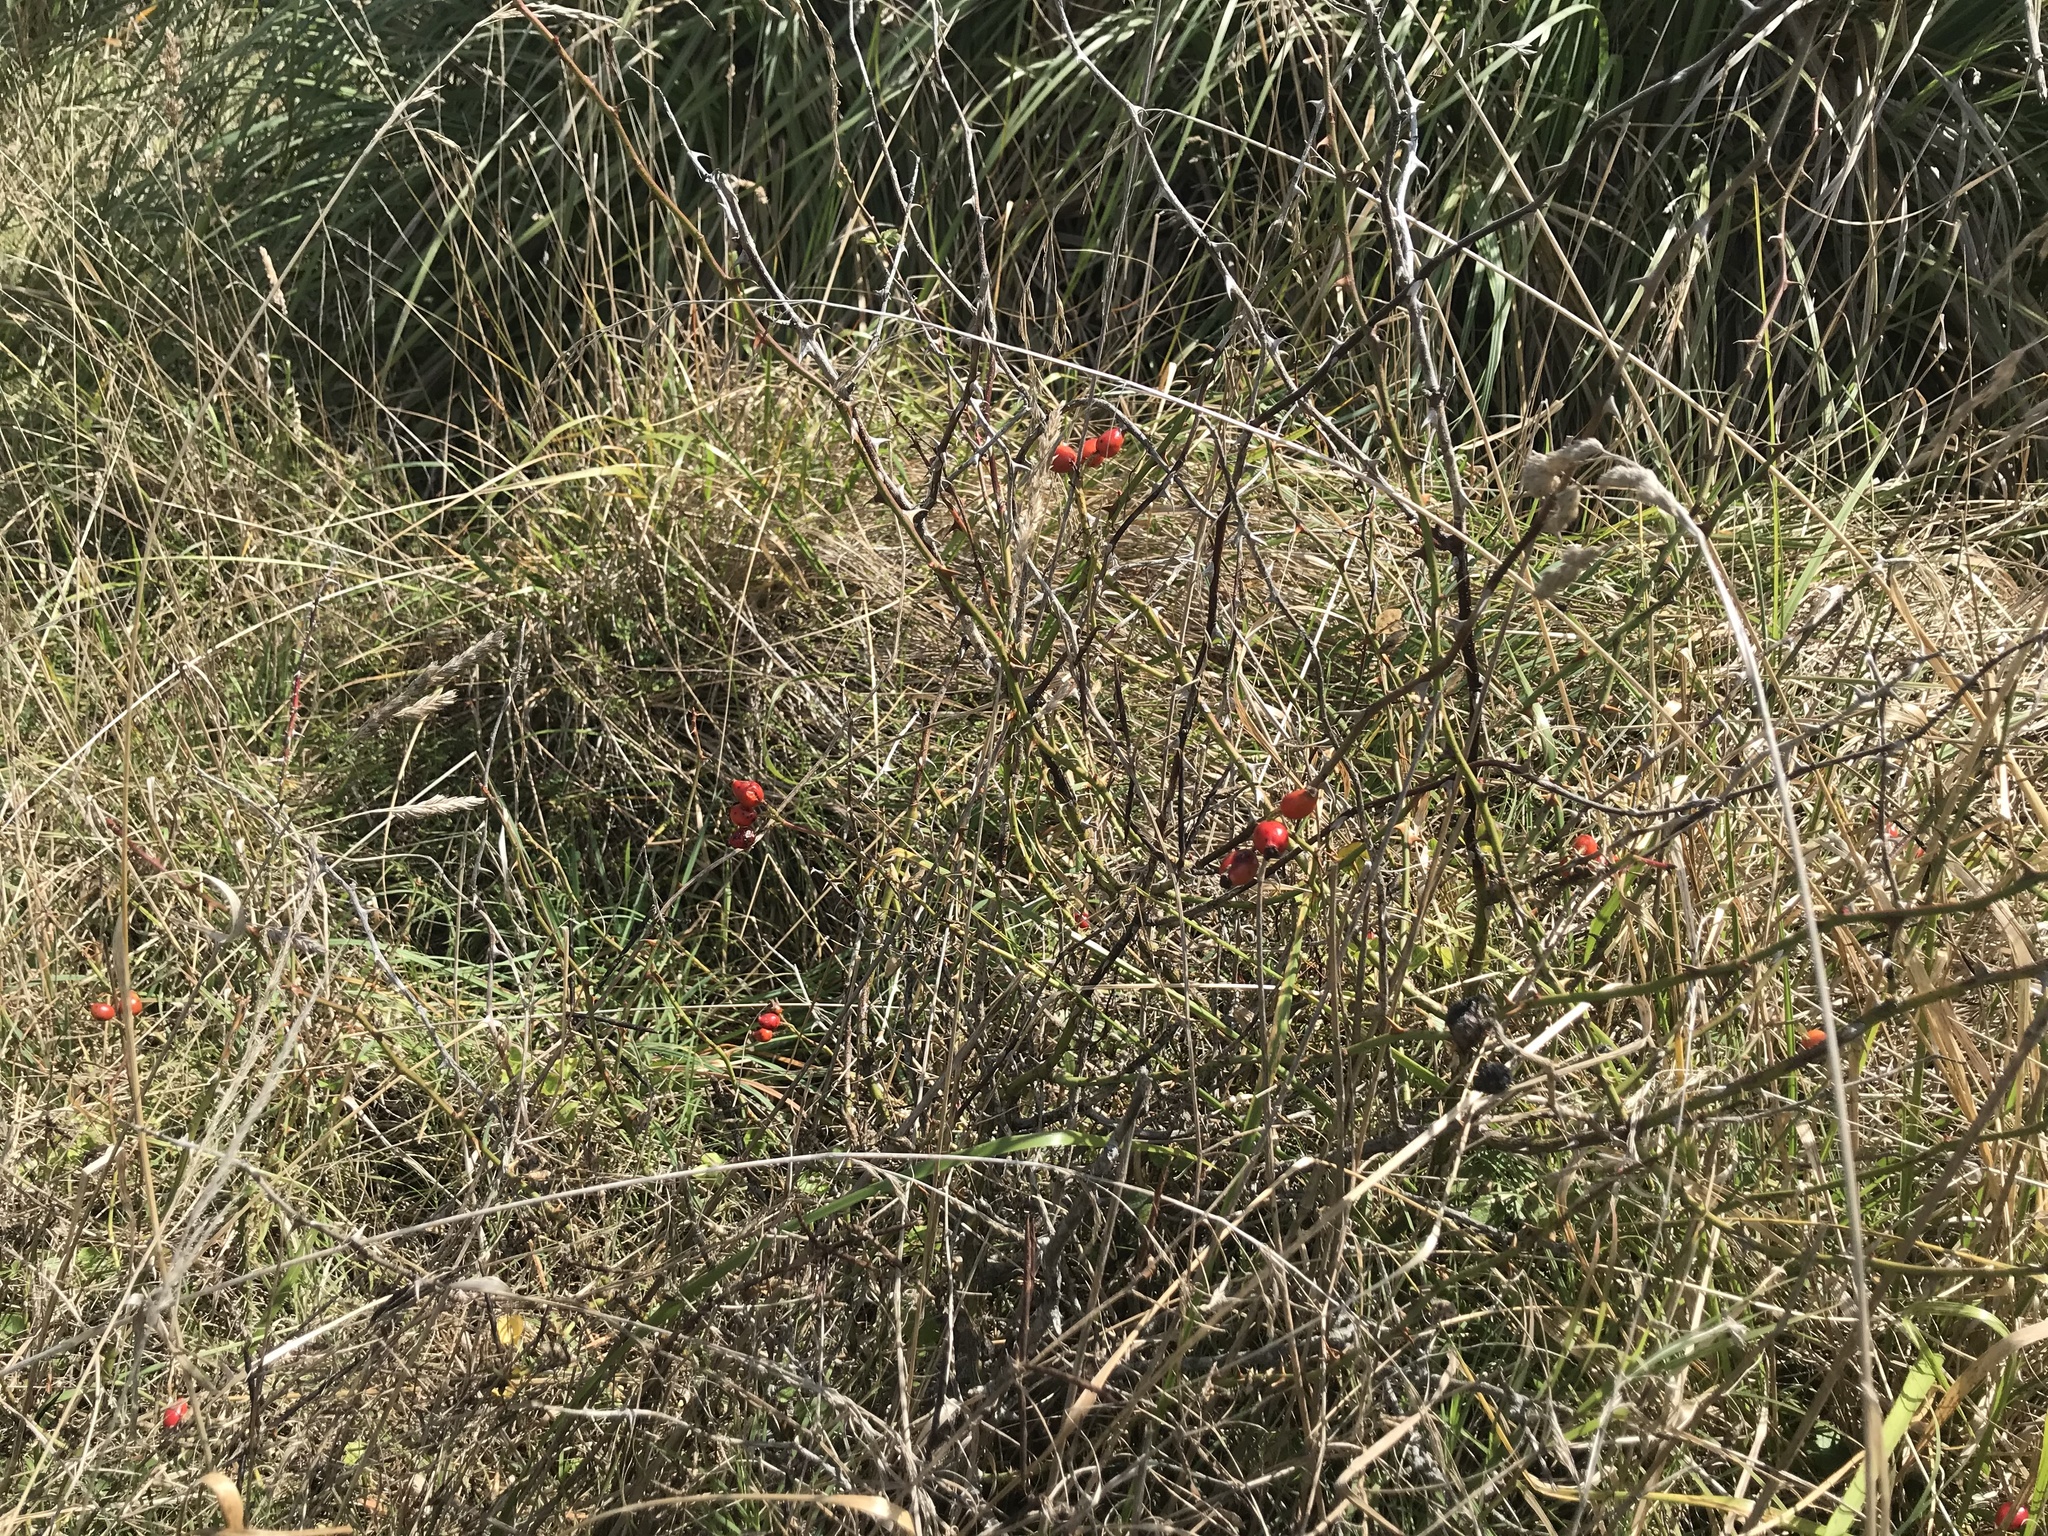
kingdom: Plantae
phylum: Tracheophyta
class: Magnoliopsida
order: Rosales
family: Rosaceae
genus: Rosa
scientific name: Rosa rubiginosa
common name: Sweet-briar
